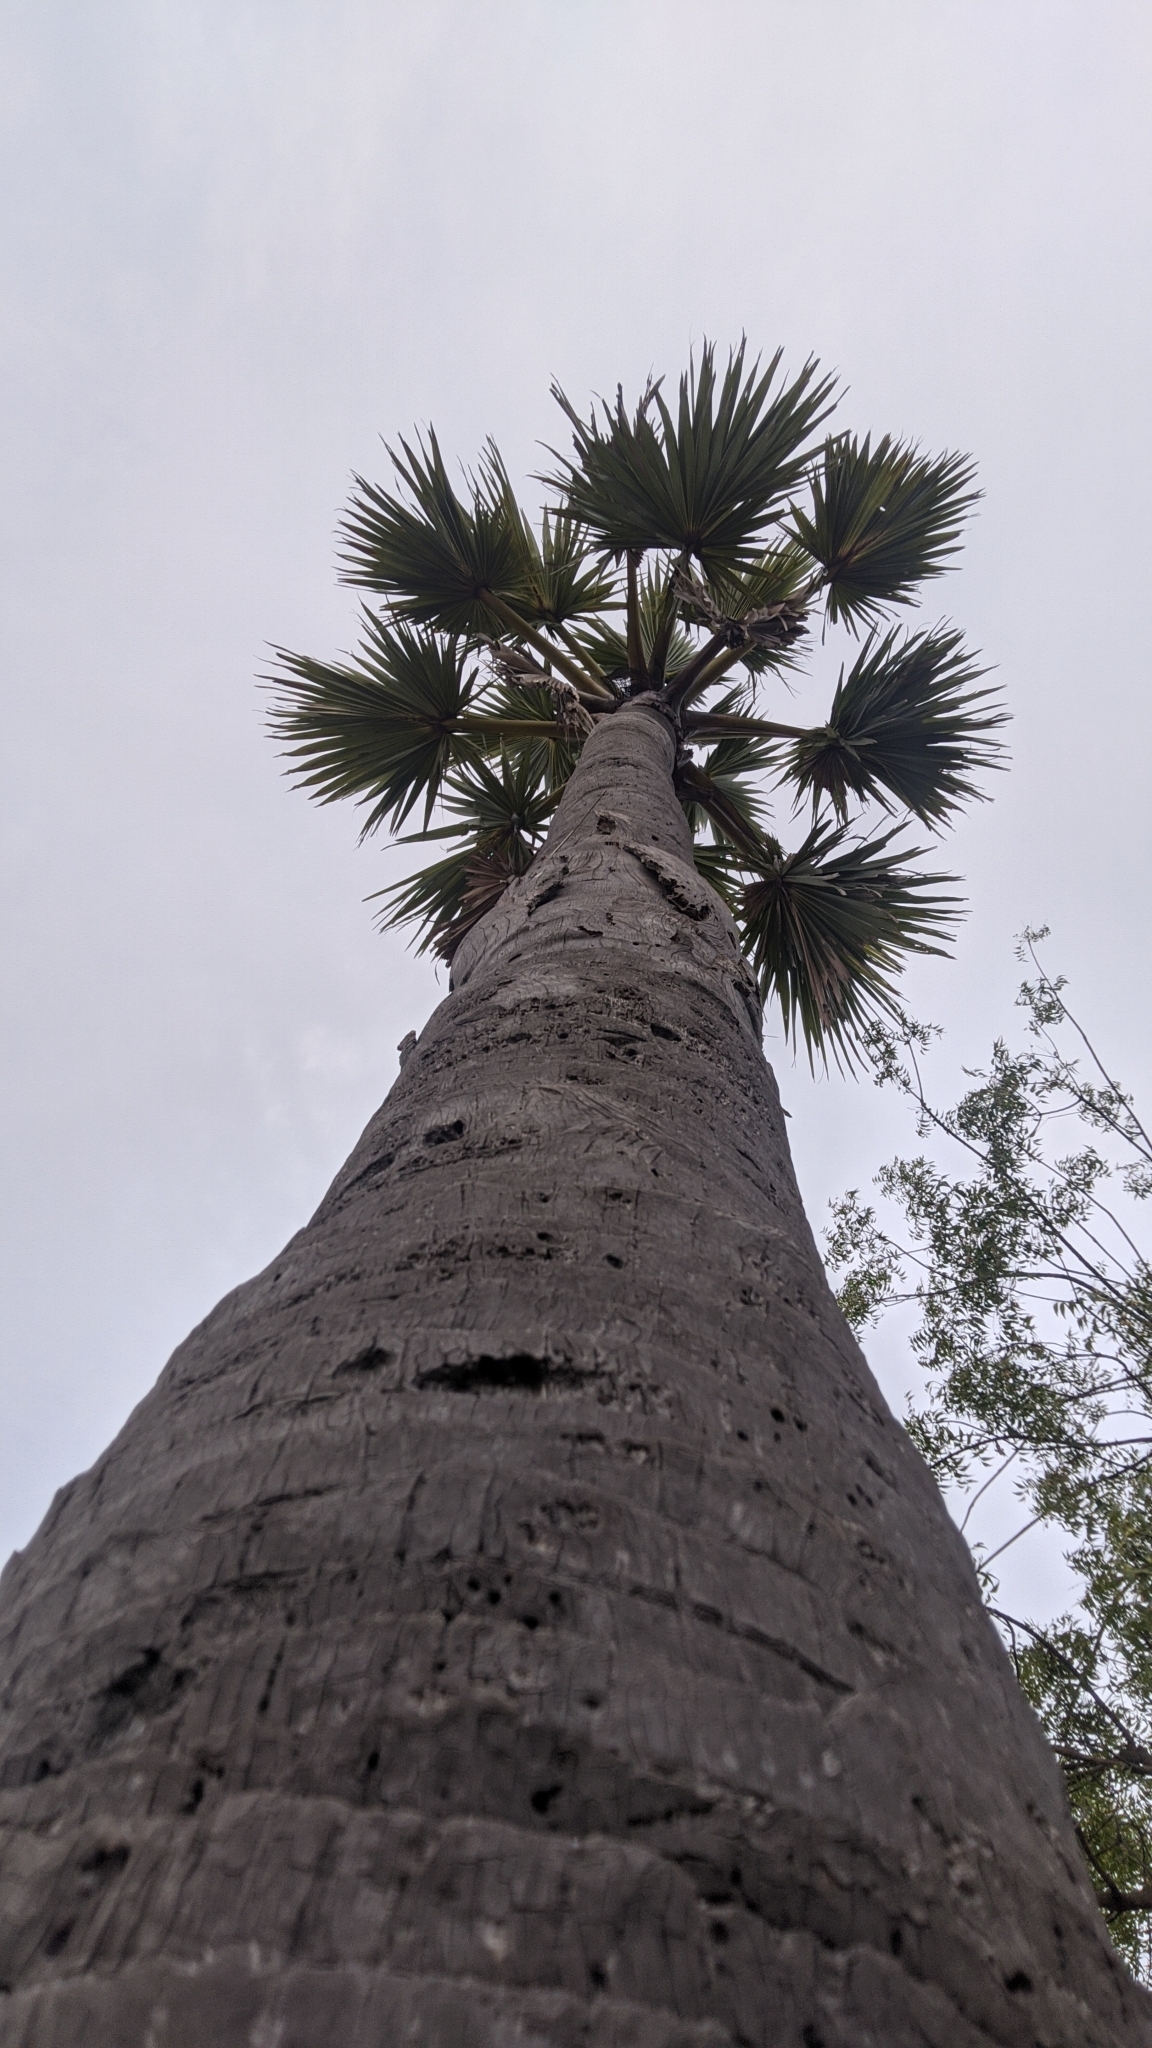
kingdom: Plantae
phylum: Tracheophyta
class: Liliopsida
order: Arecales
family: Arecaceae
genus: Borassus
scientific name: Borassus flabellifer
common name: Palmyra palm
